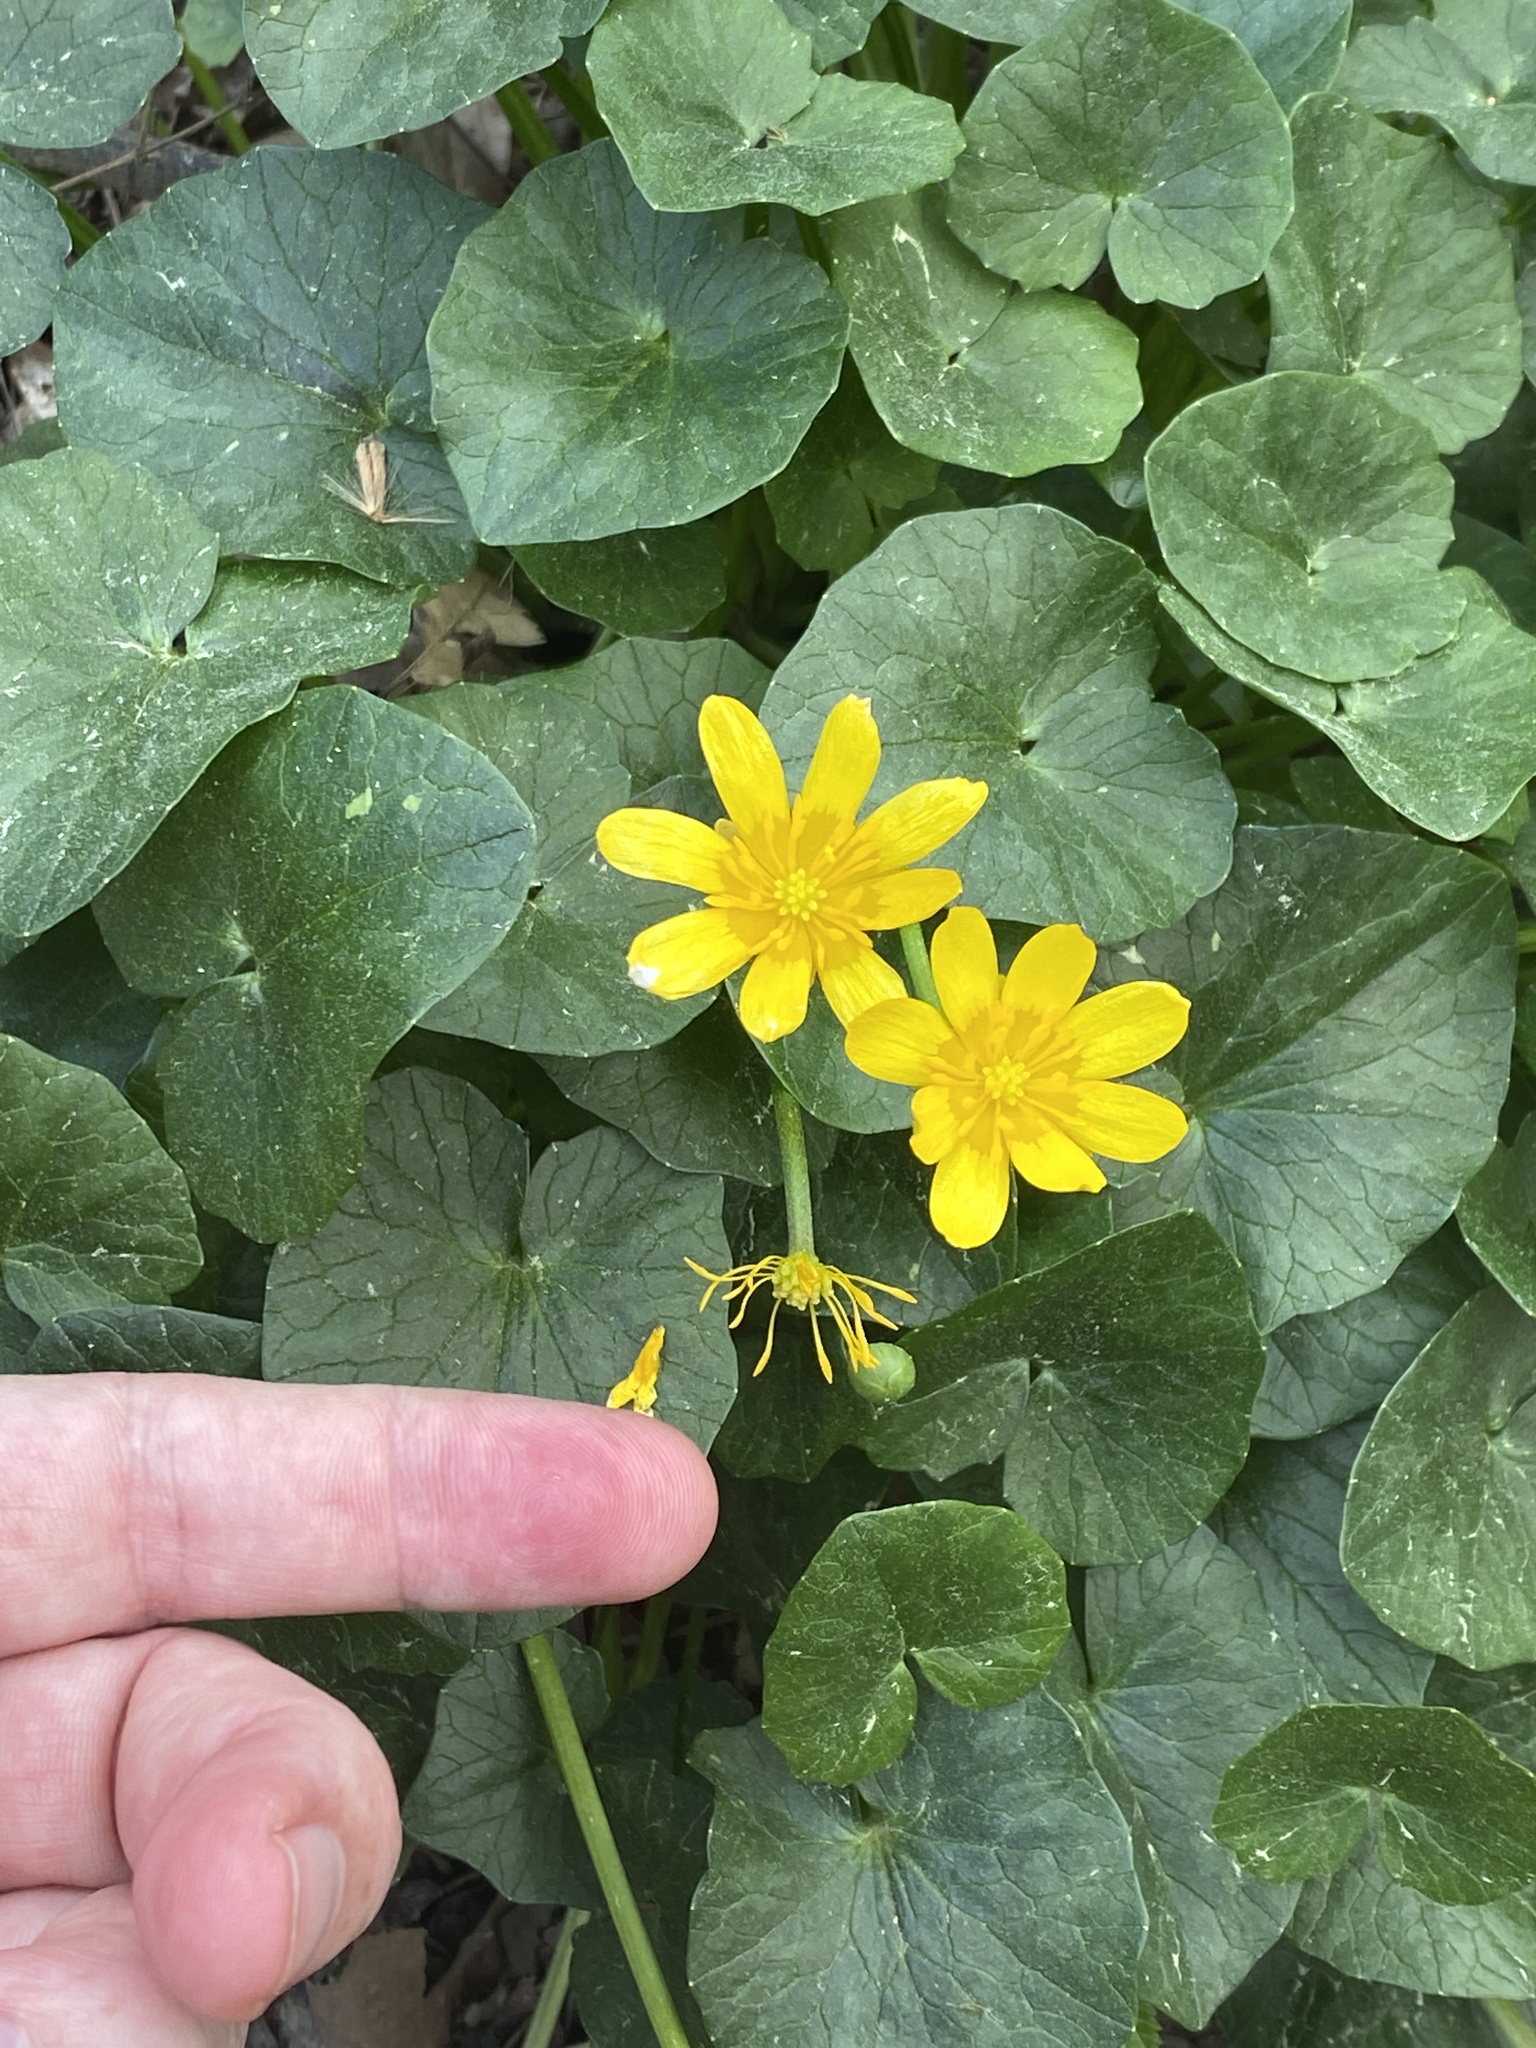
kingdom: Plantae
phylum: Tracheophyta
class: Magnoliopsida
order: Ranunculales
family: Ranunculaceae
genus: Ficaria
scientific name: Ficaria verna
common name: Lesser celandine
